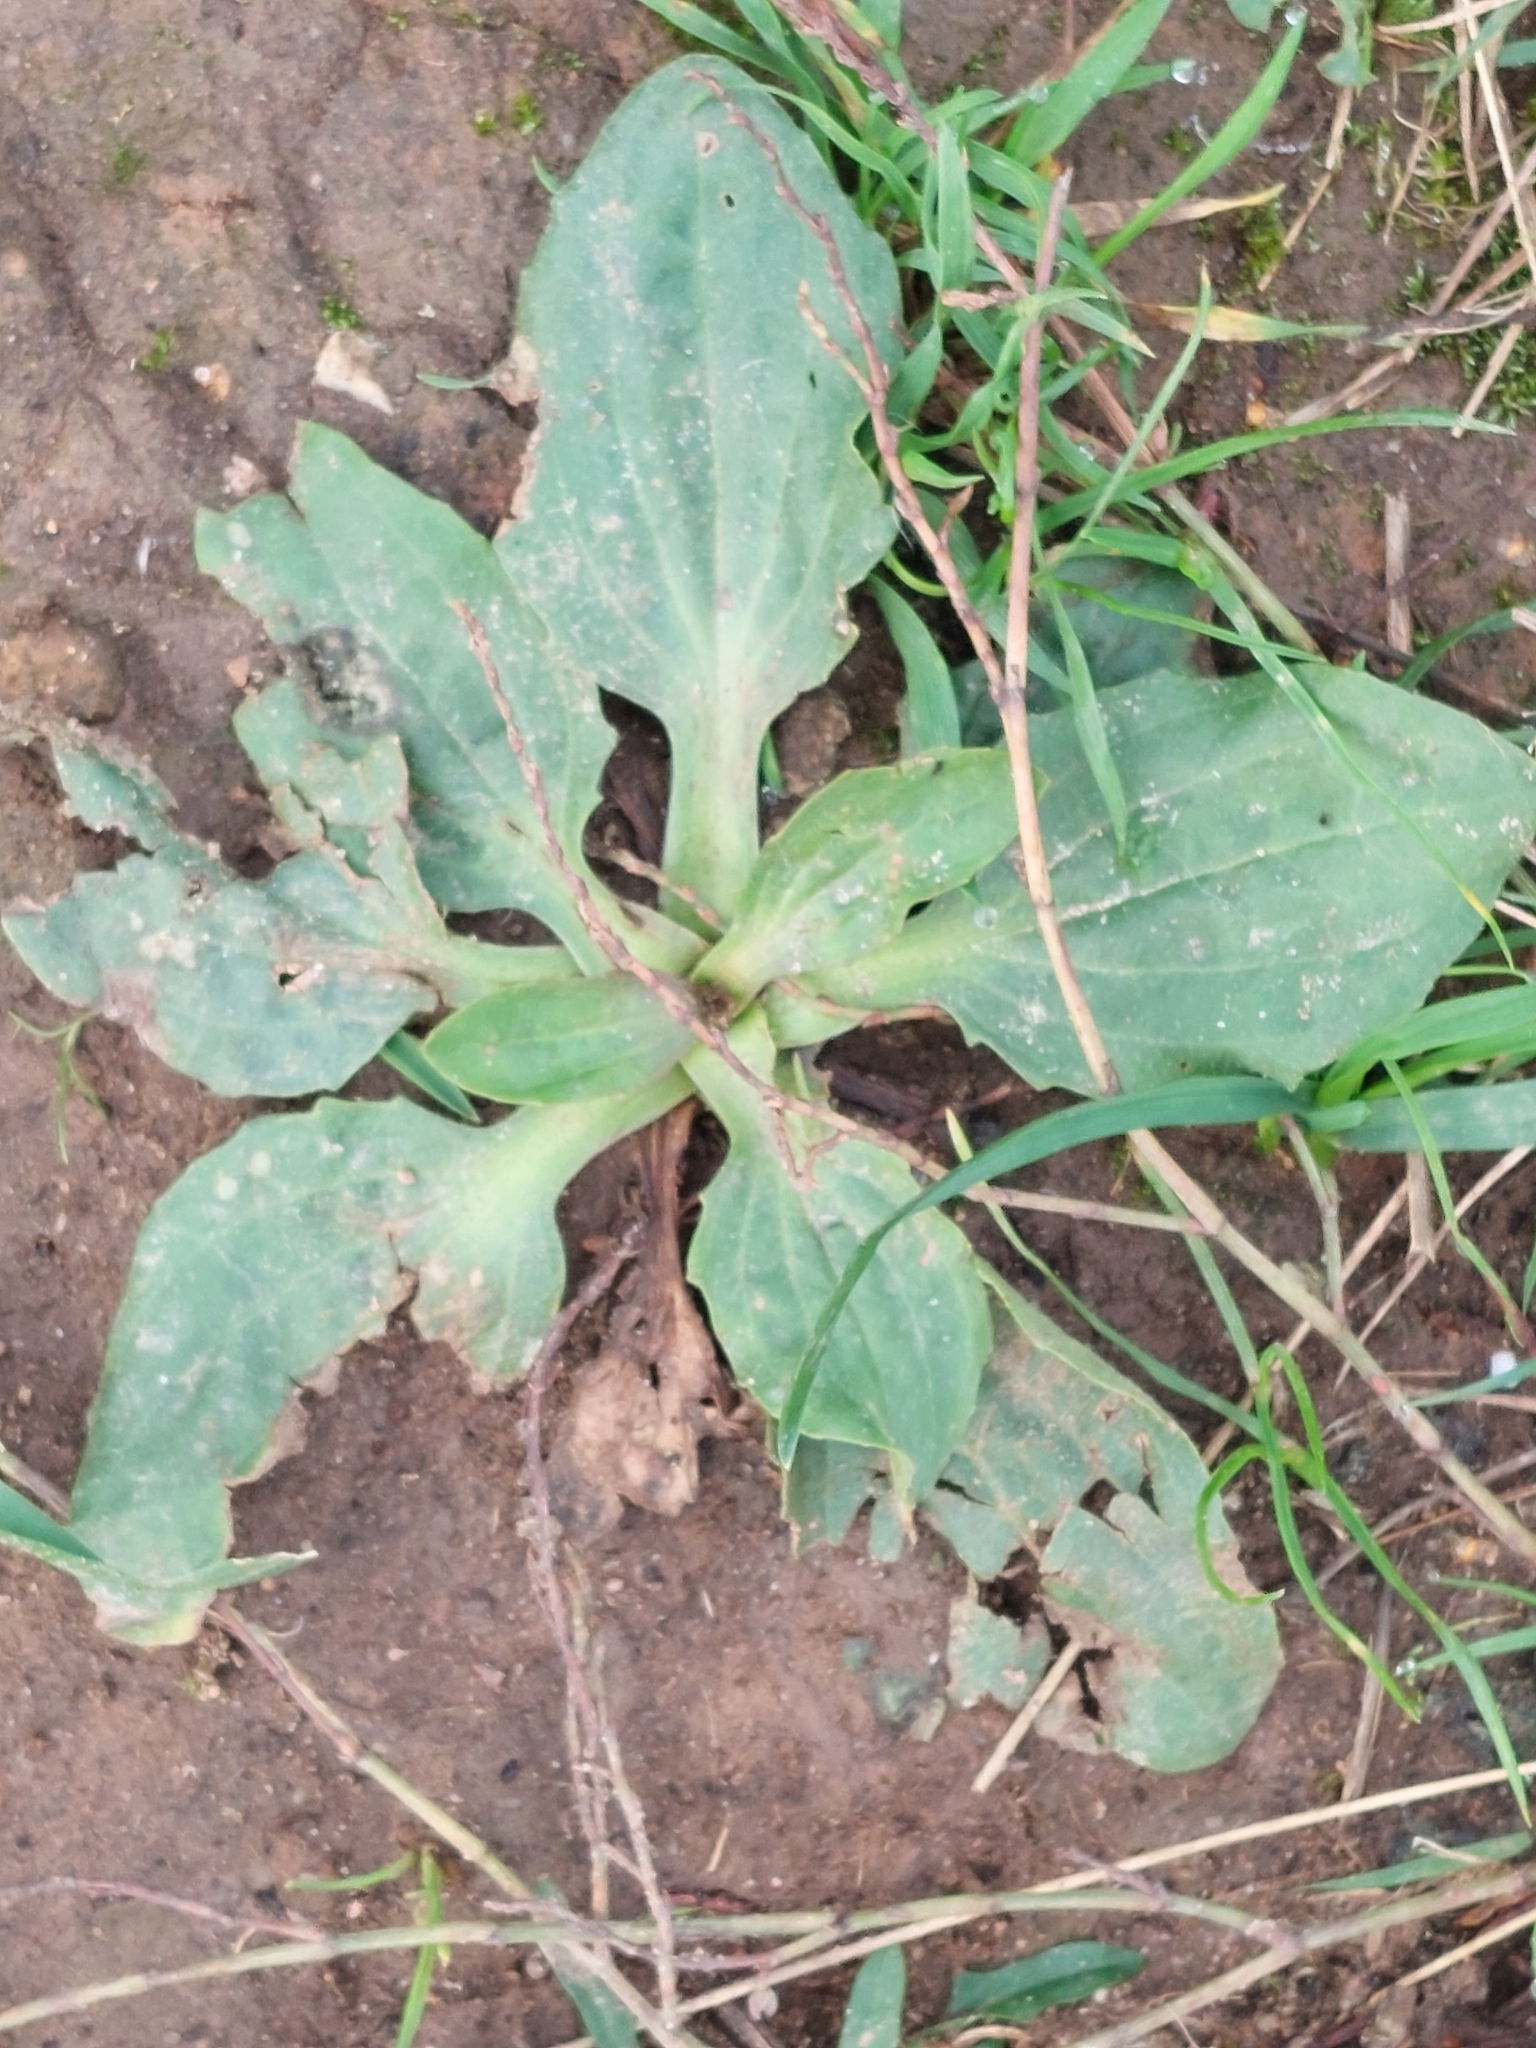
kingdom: Plantae
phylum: Tracheophyta
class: Magnoliopsida
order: Lamiales
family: Plantaginaceae
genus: Plantago
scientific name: Plantago major
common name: Common plantain
